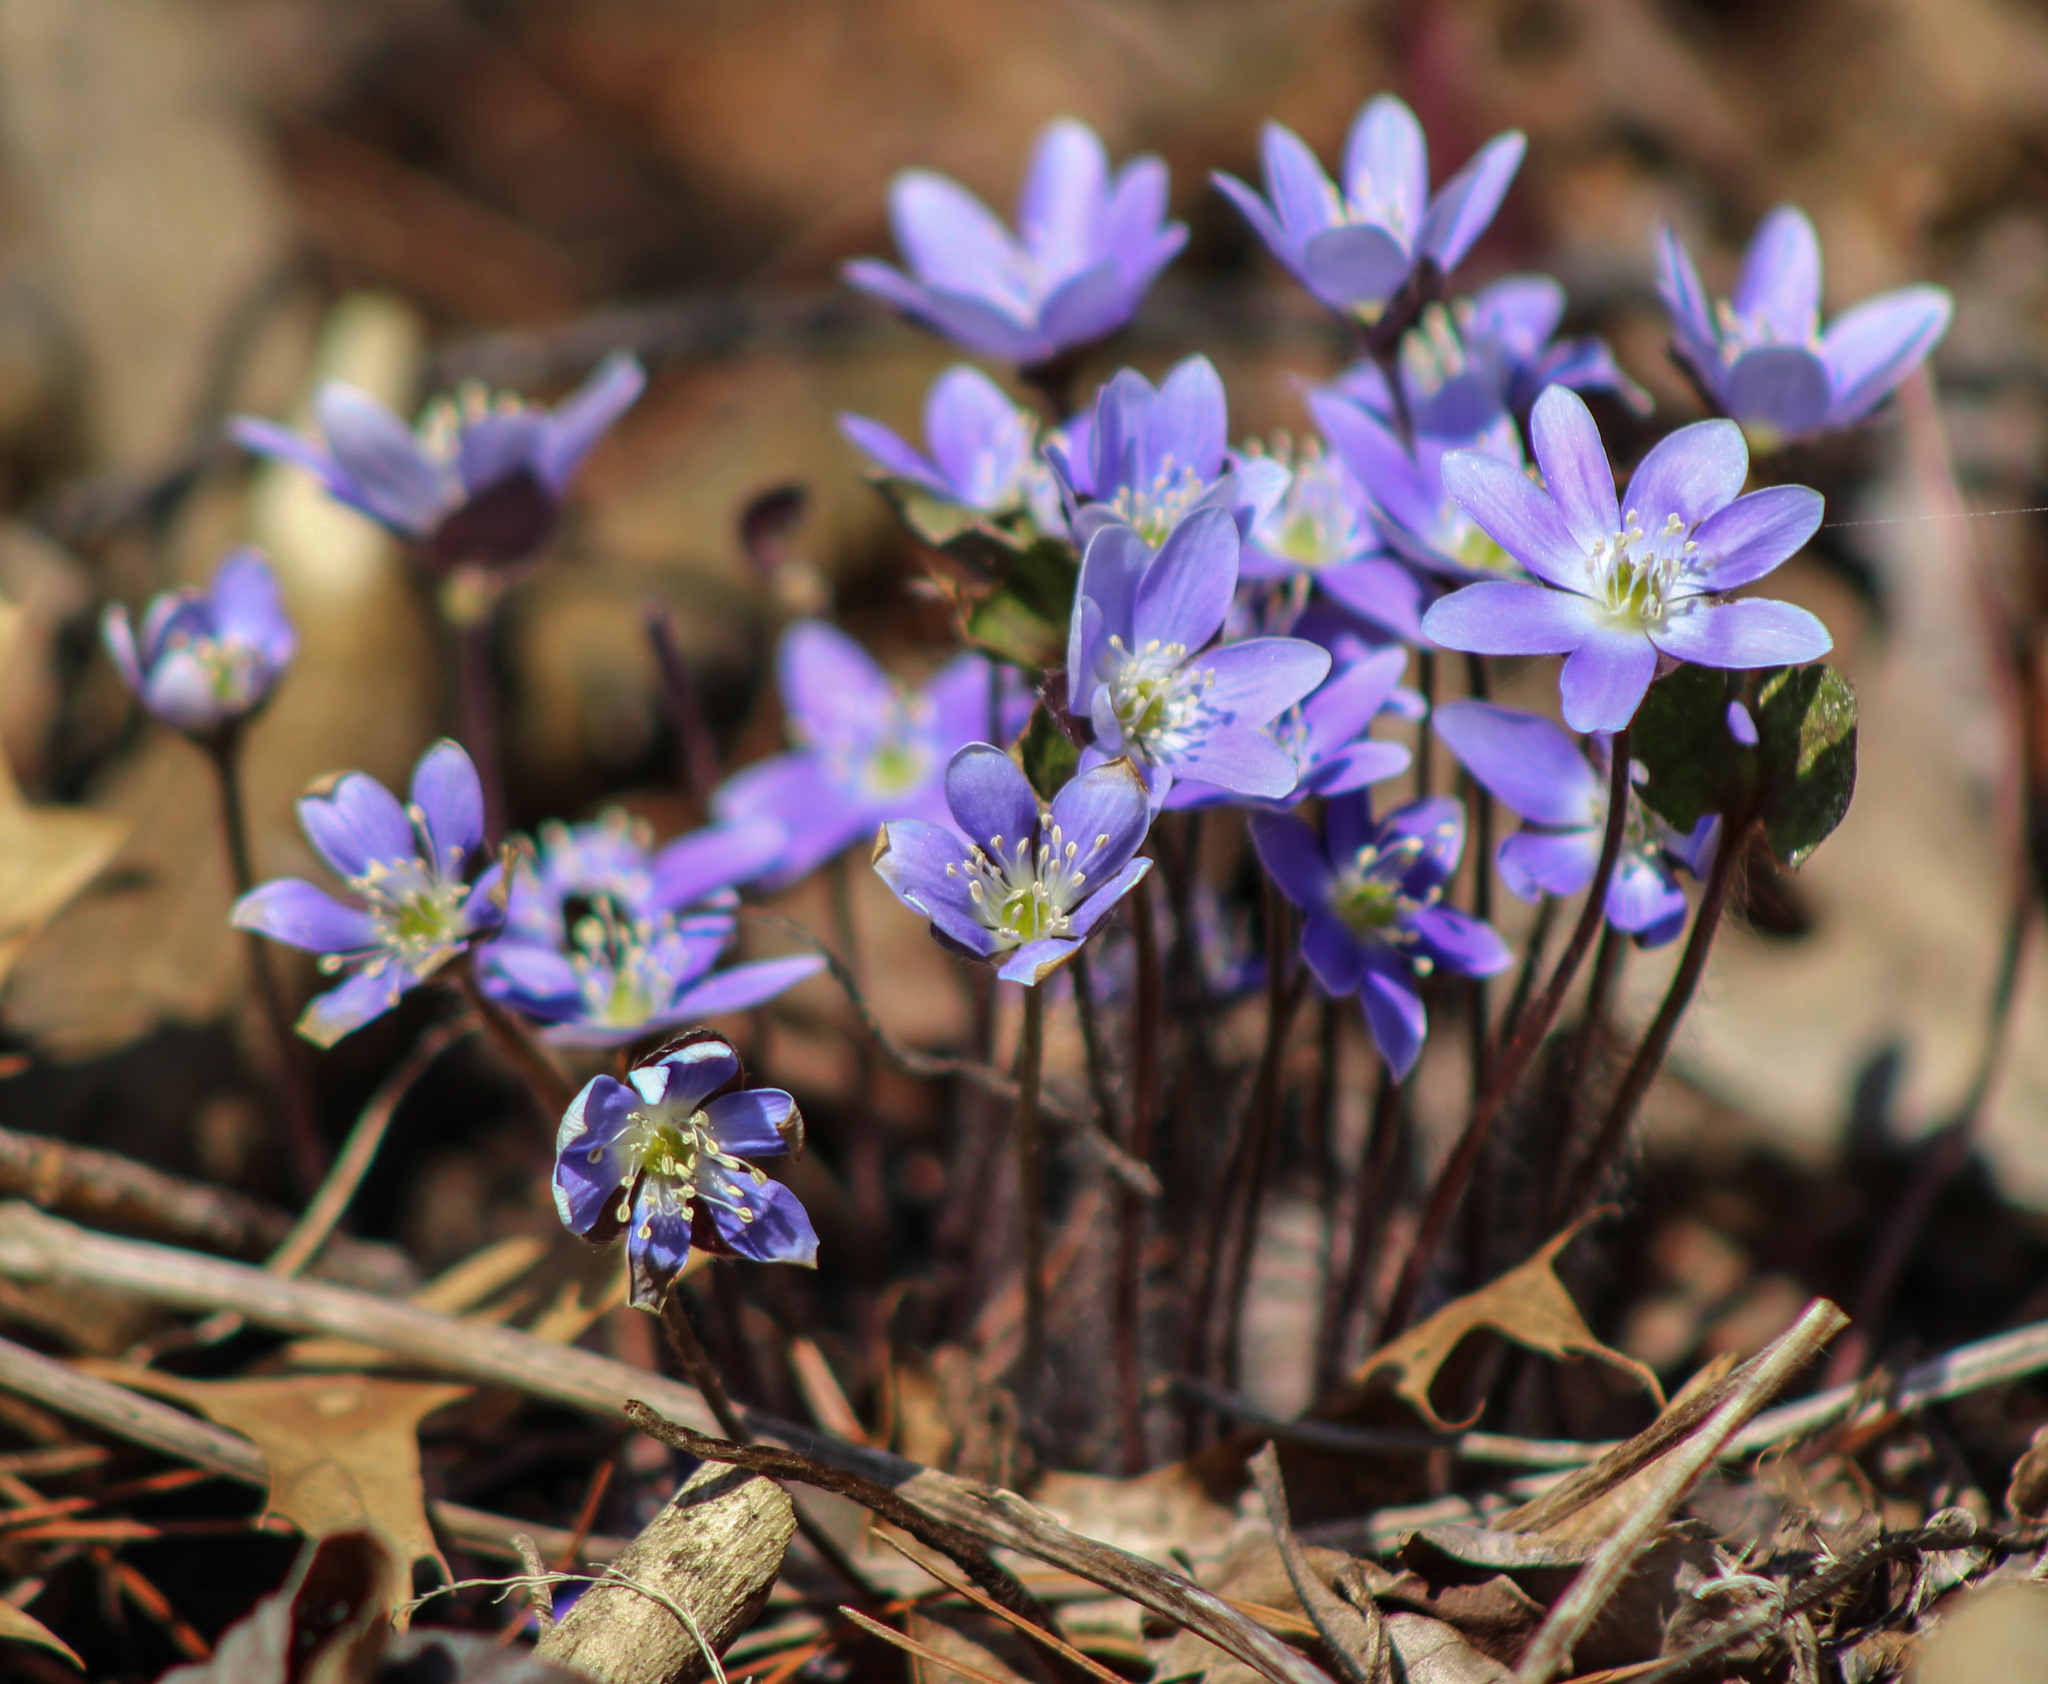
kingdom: Plantae
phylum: Tracheophyta
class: Magnoliopsida
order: Ranunculales
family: Ranunculaceae
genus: Hepatica
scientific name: Hepatica acutiloba
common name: Sharp-lobed hepatica
